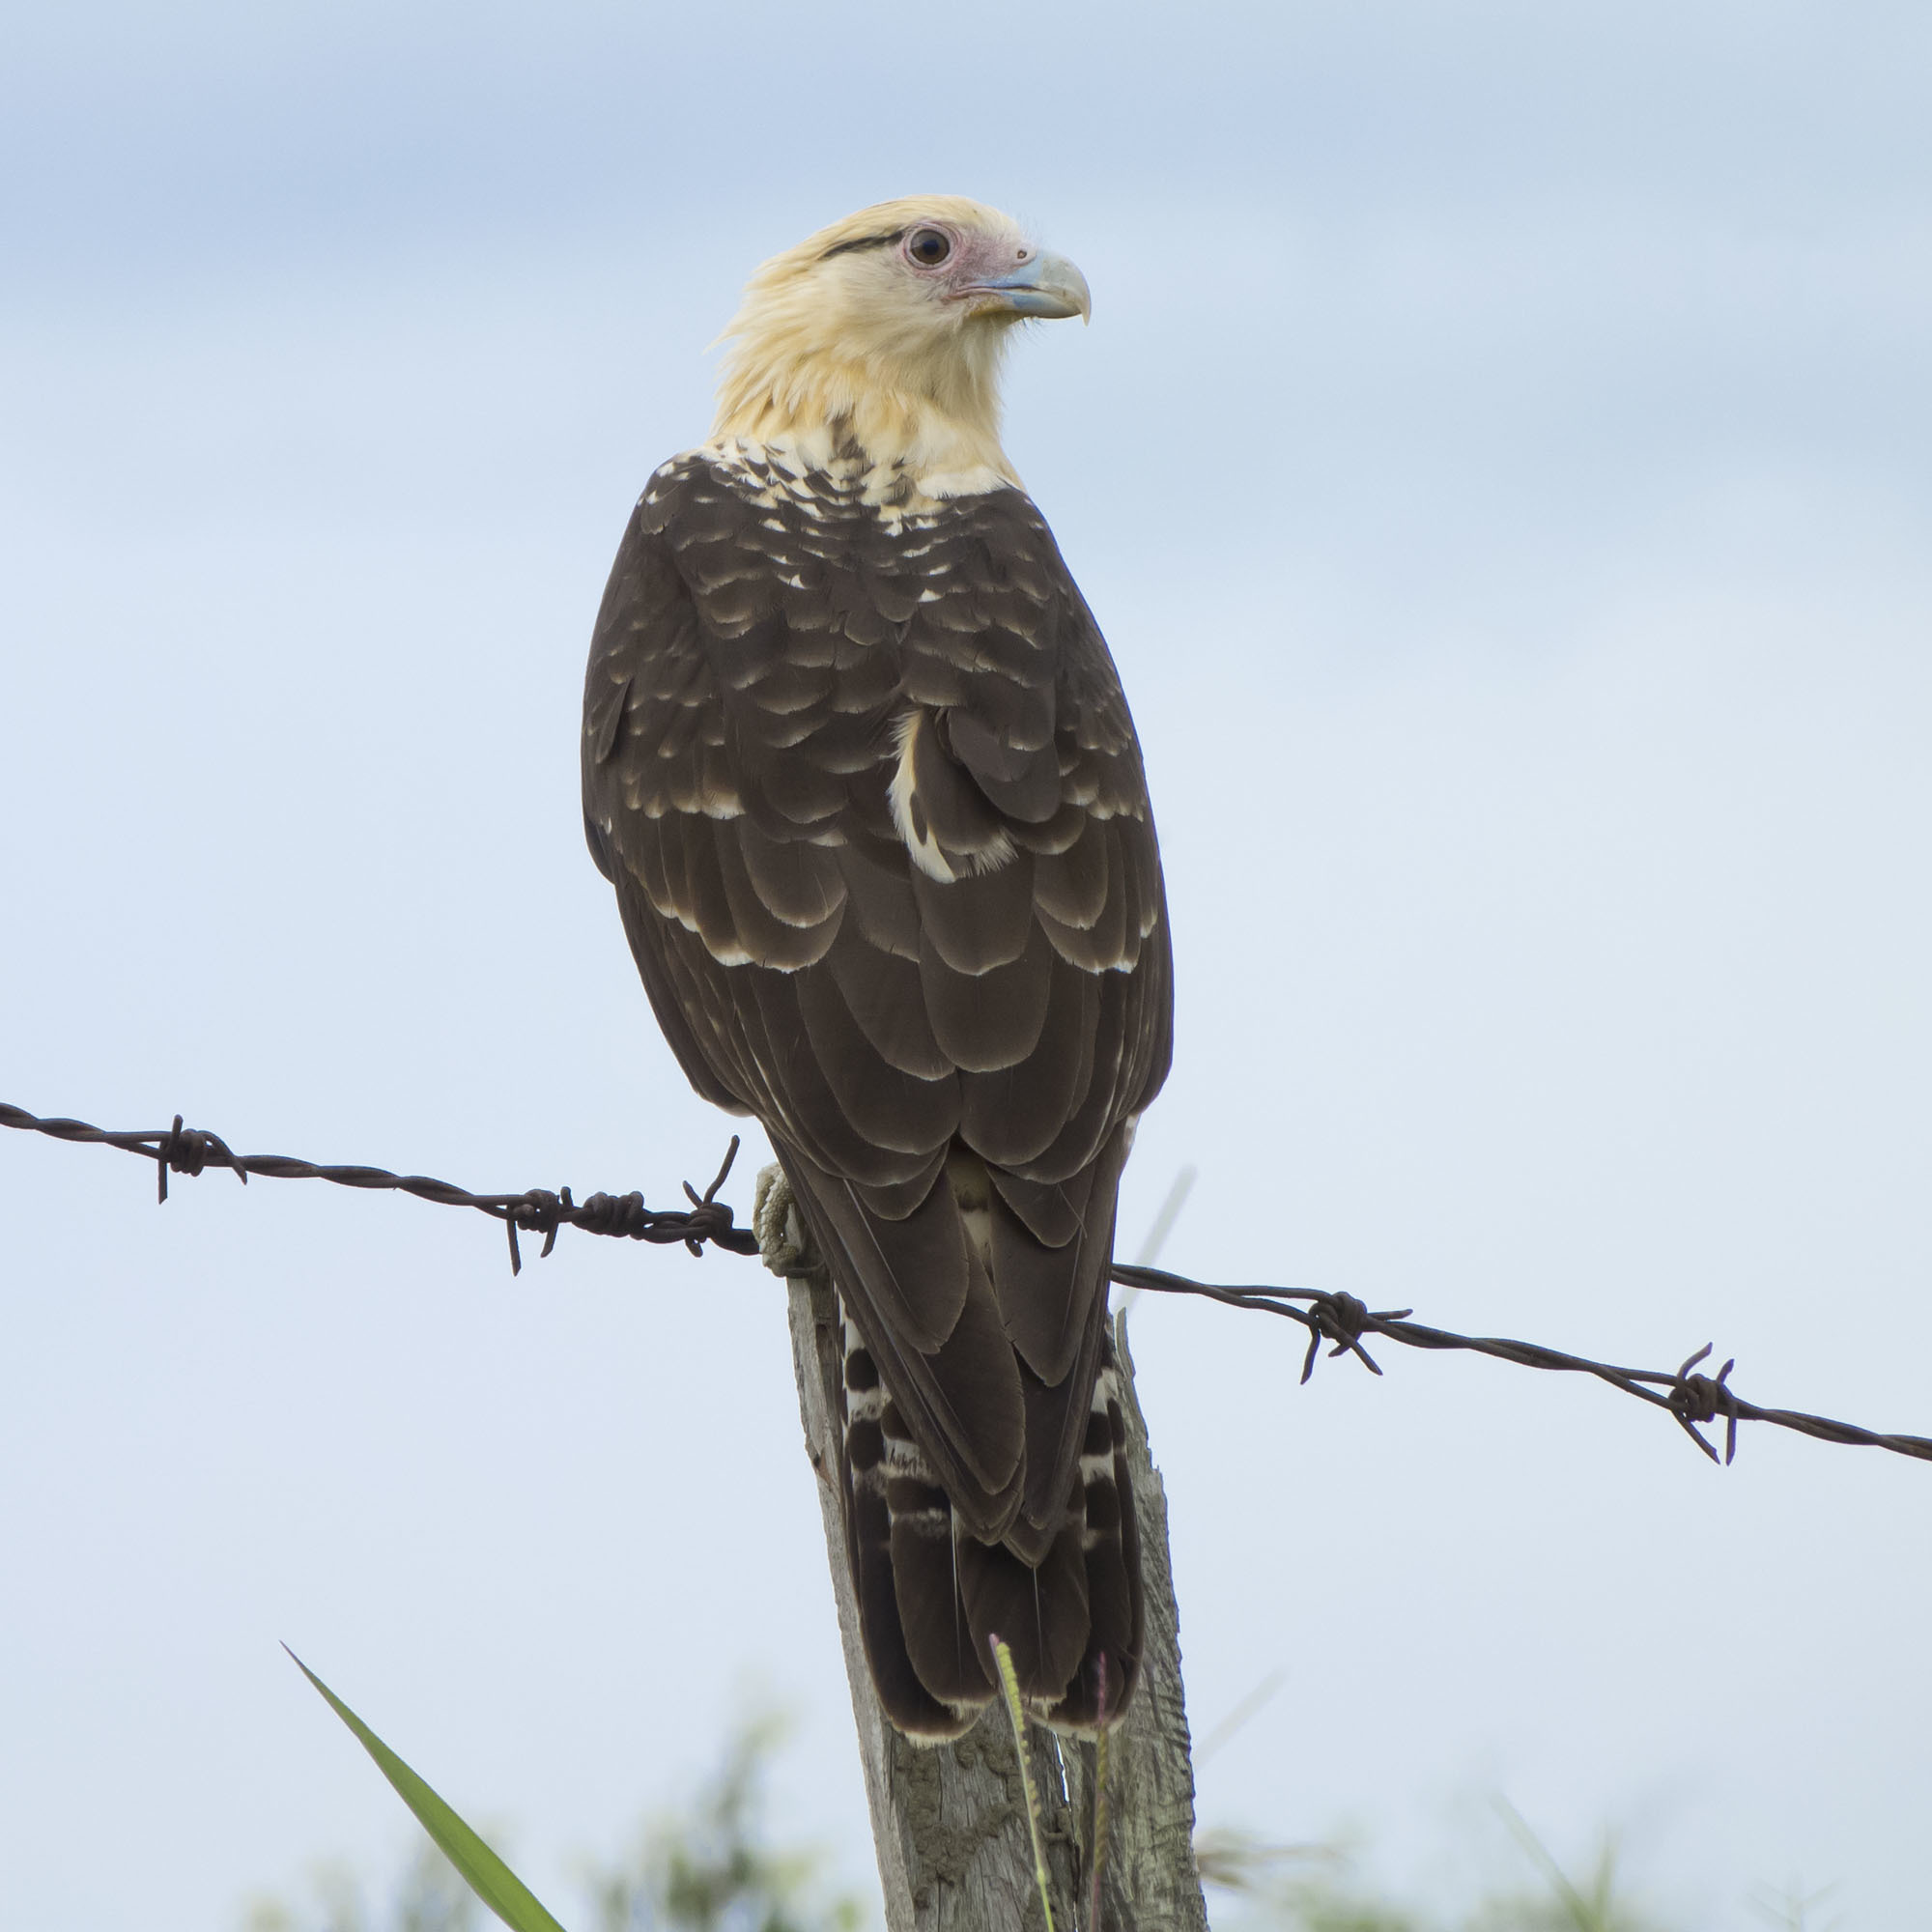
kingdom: Animalia
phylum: Chordata
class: Aves
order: Falconiformes
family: Falconidae
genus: Daptrius
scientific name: Daptrius
